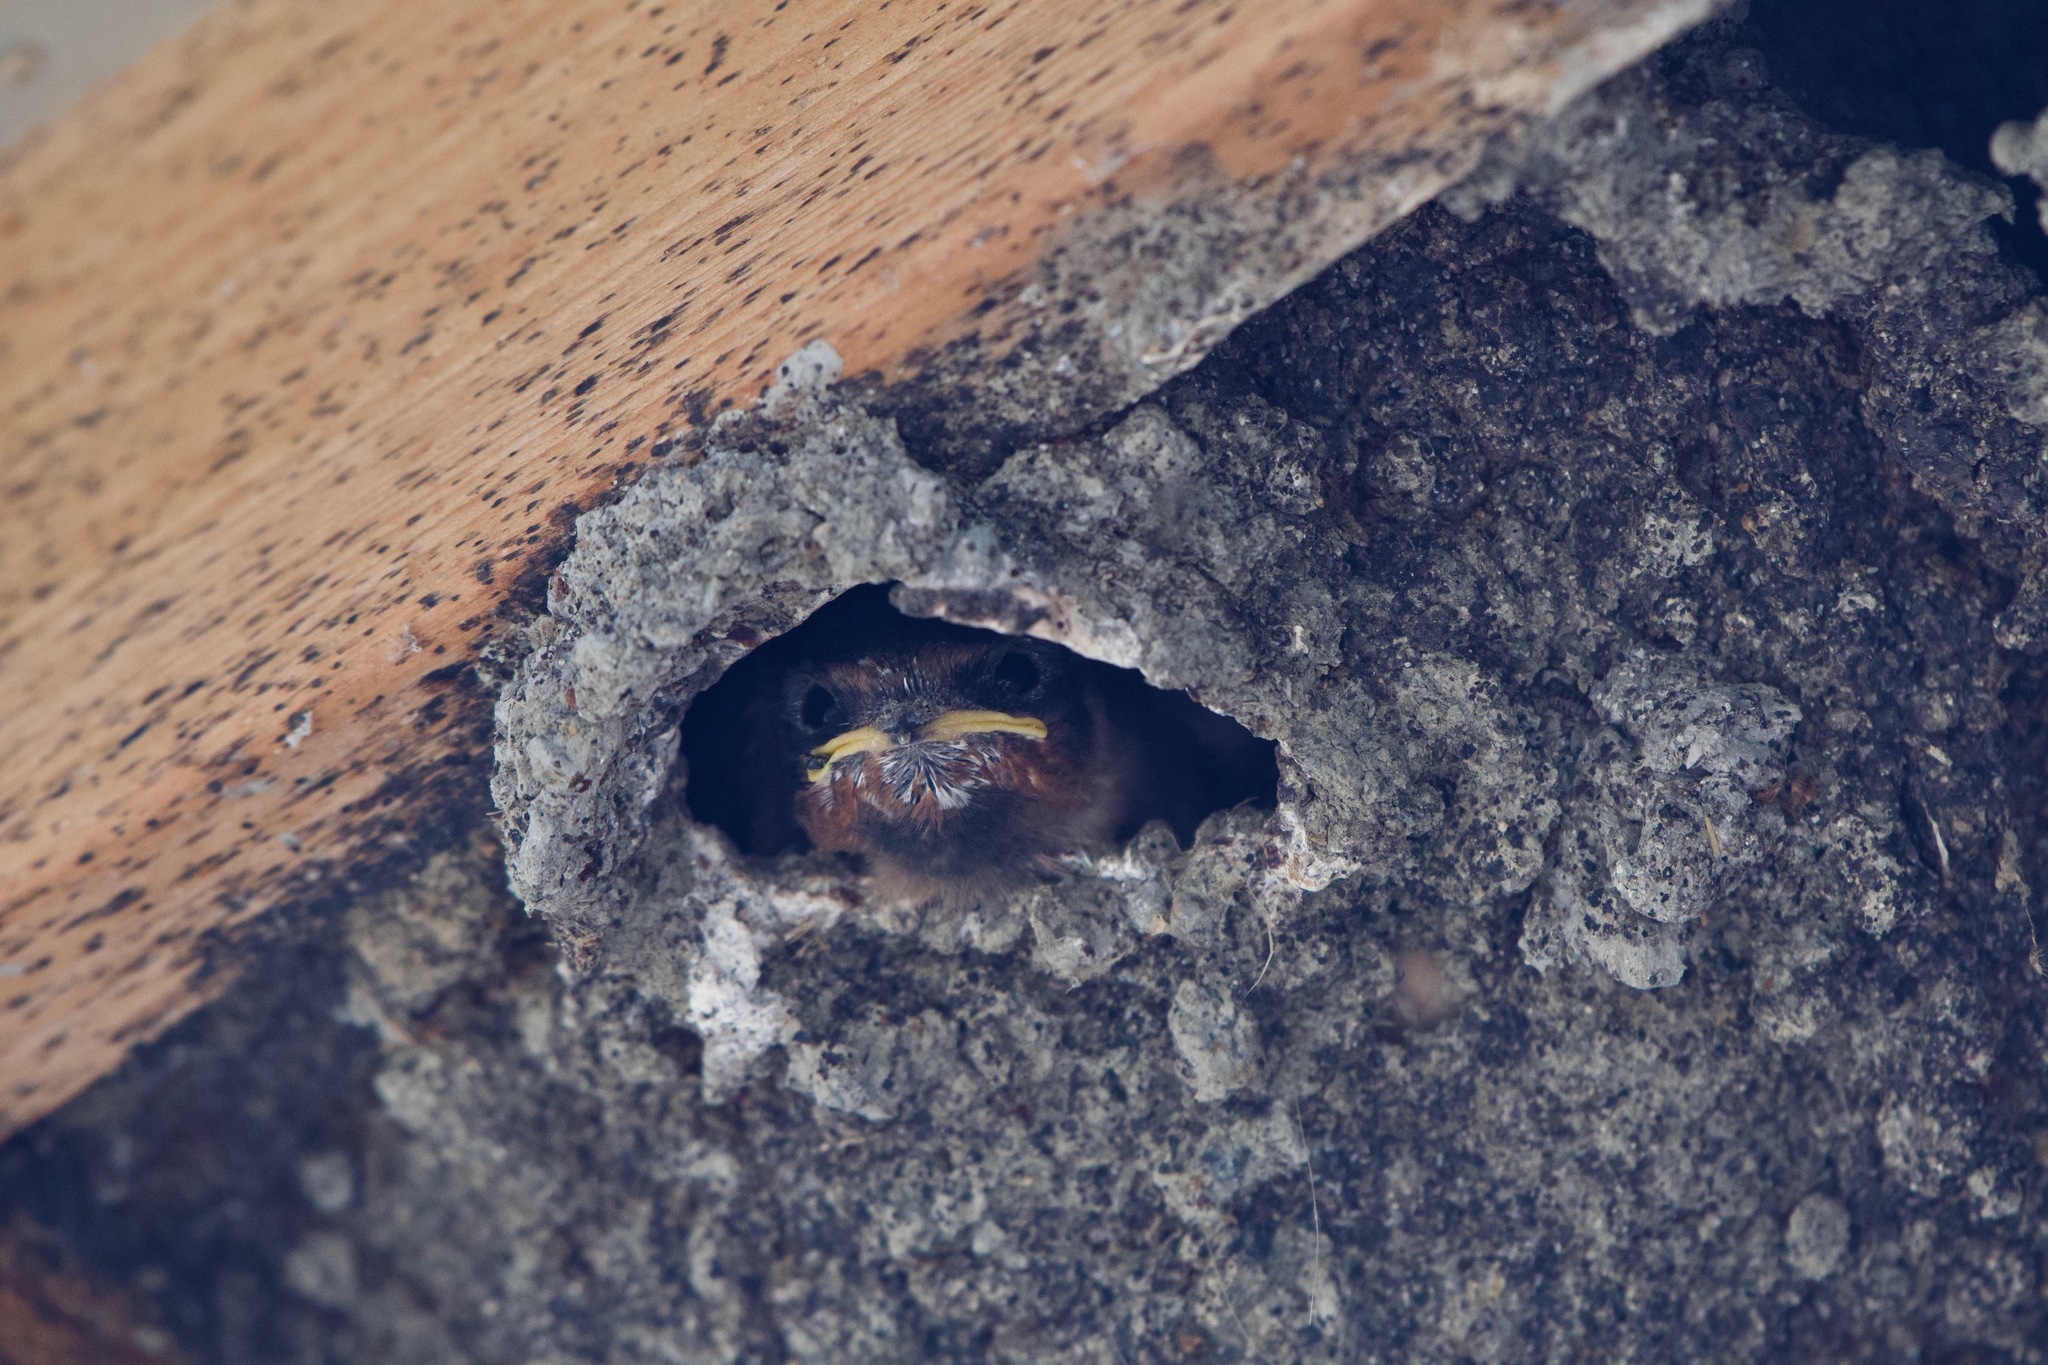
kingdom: Animalia
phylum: Chordata
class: Aves
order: Passeriformes
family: Hirundinidae
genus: Petrochelidon
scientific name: Petrochelidon pyrrhonota
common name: American cliff swallow
